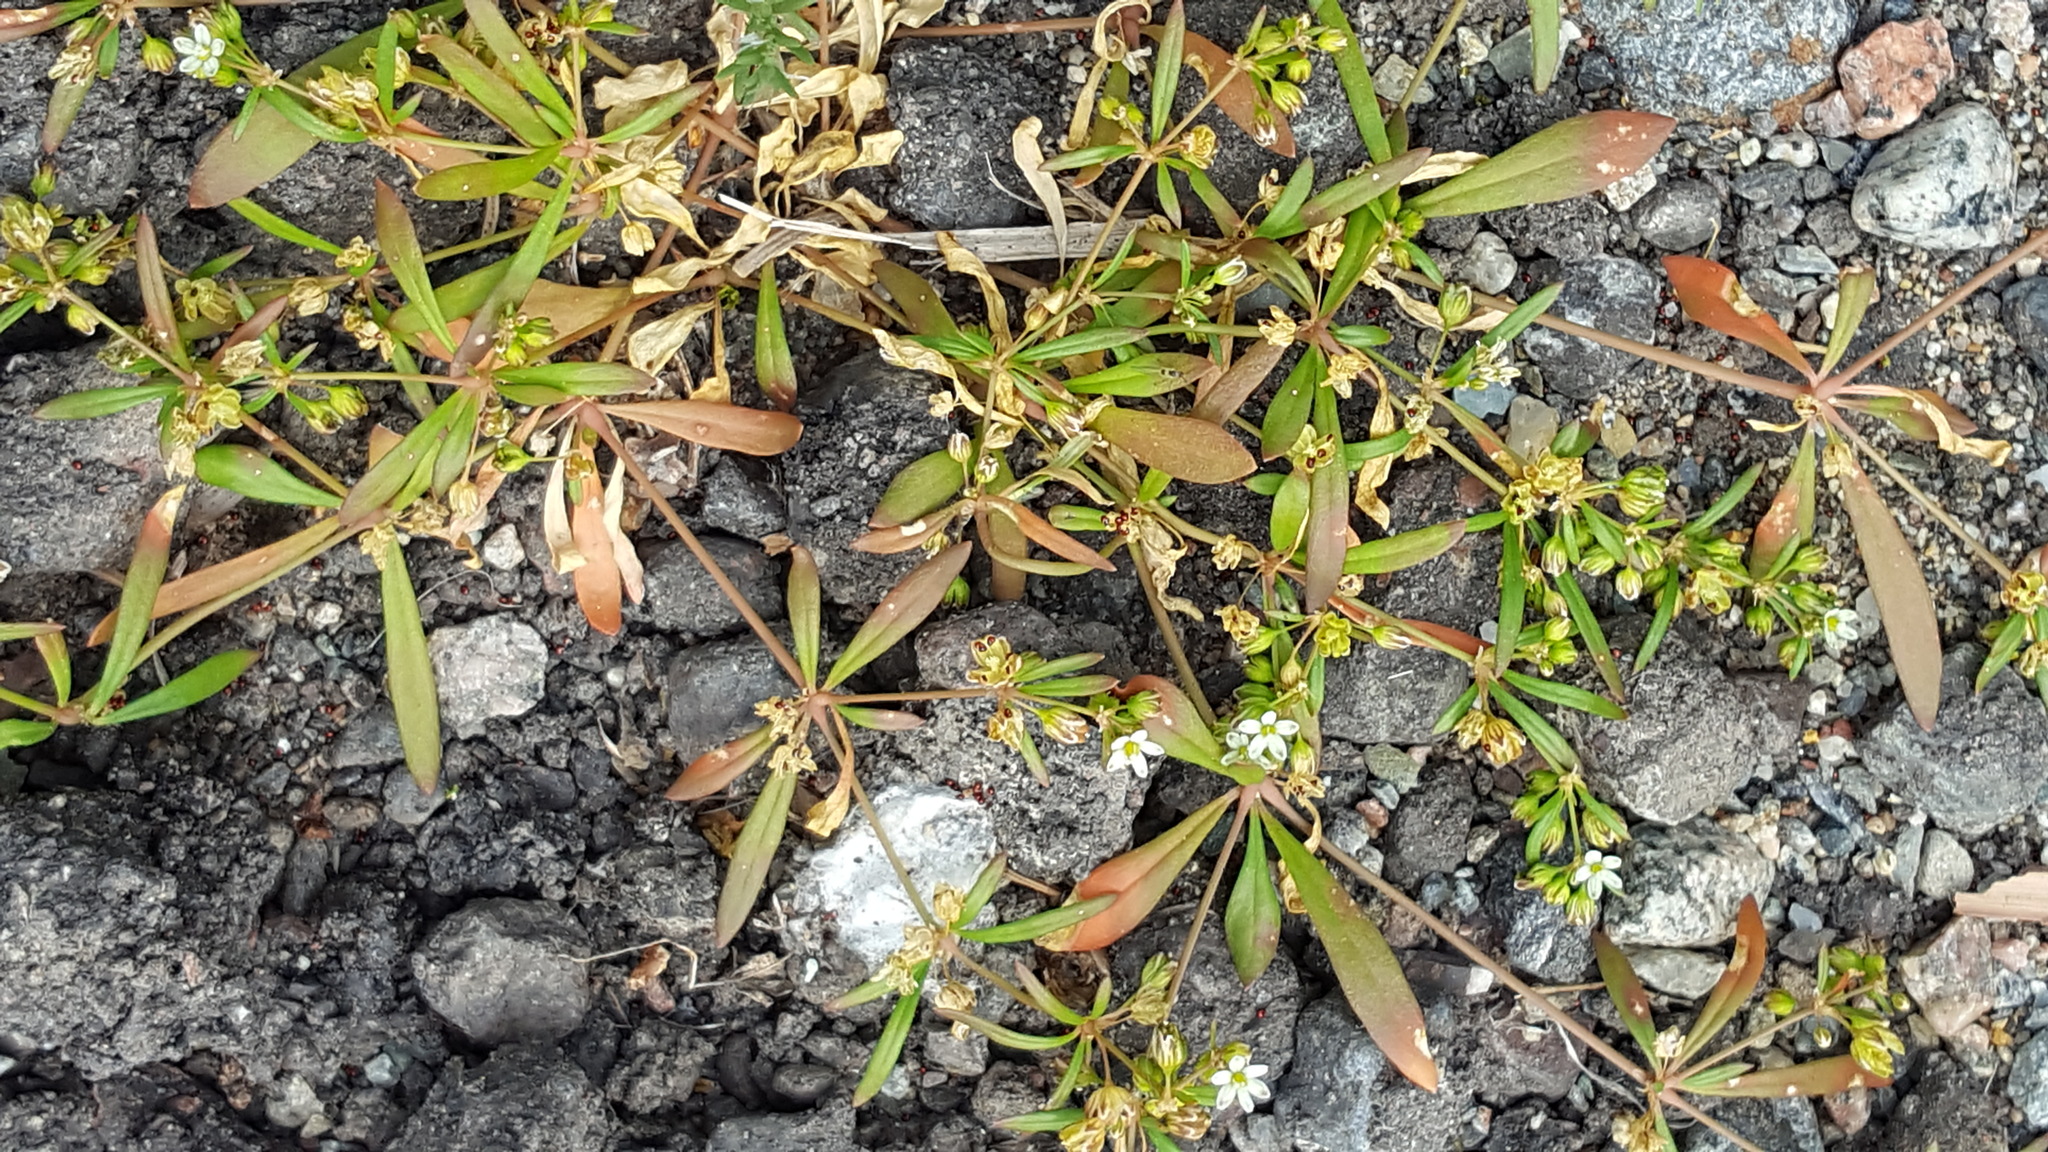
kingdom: Plantae
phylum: Tracheophyta
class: Magnoliopsida
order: Caryophyllales
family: Molluginaceae
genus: Mollugo
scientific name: Mollugo verticillata
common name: Green carpetweed
